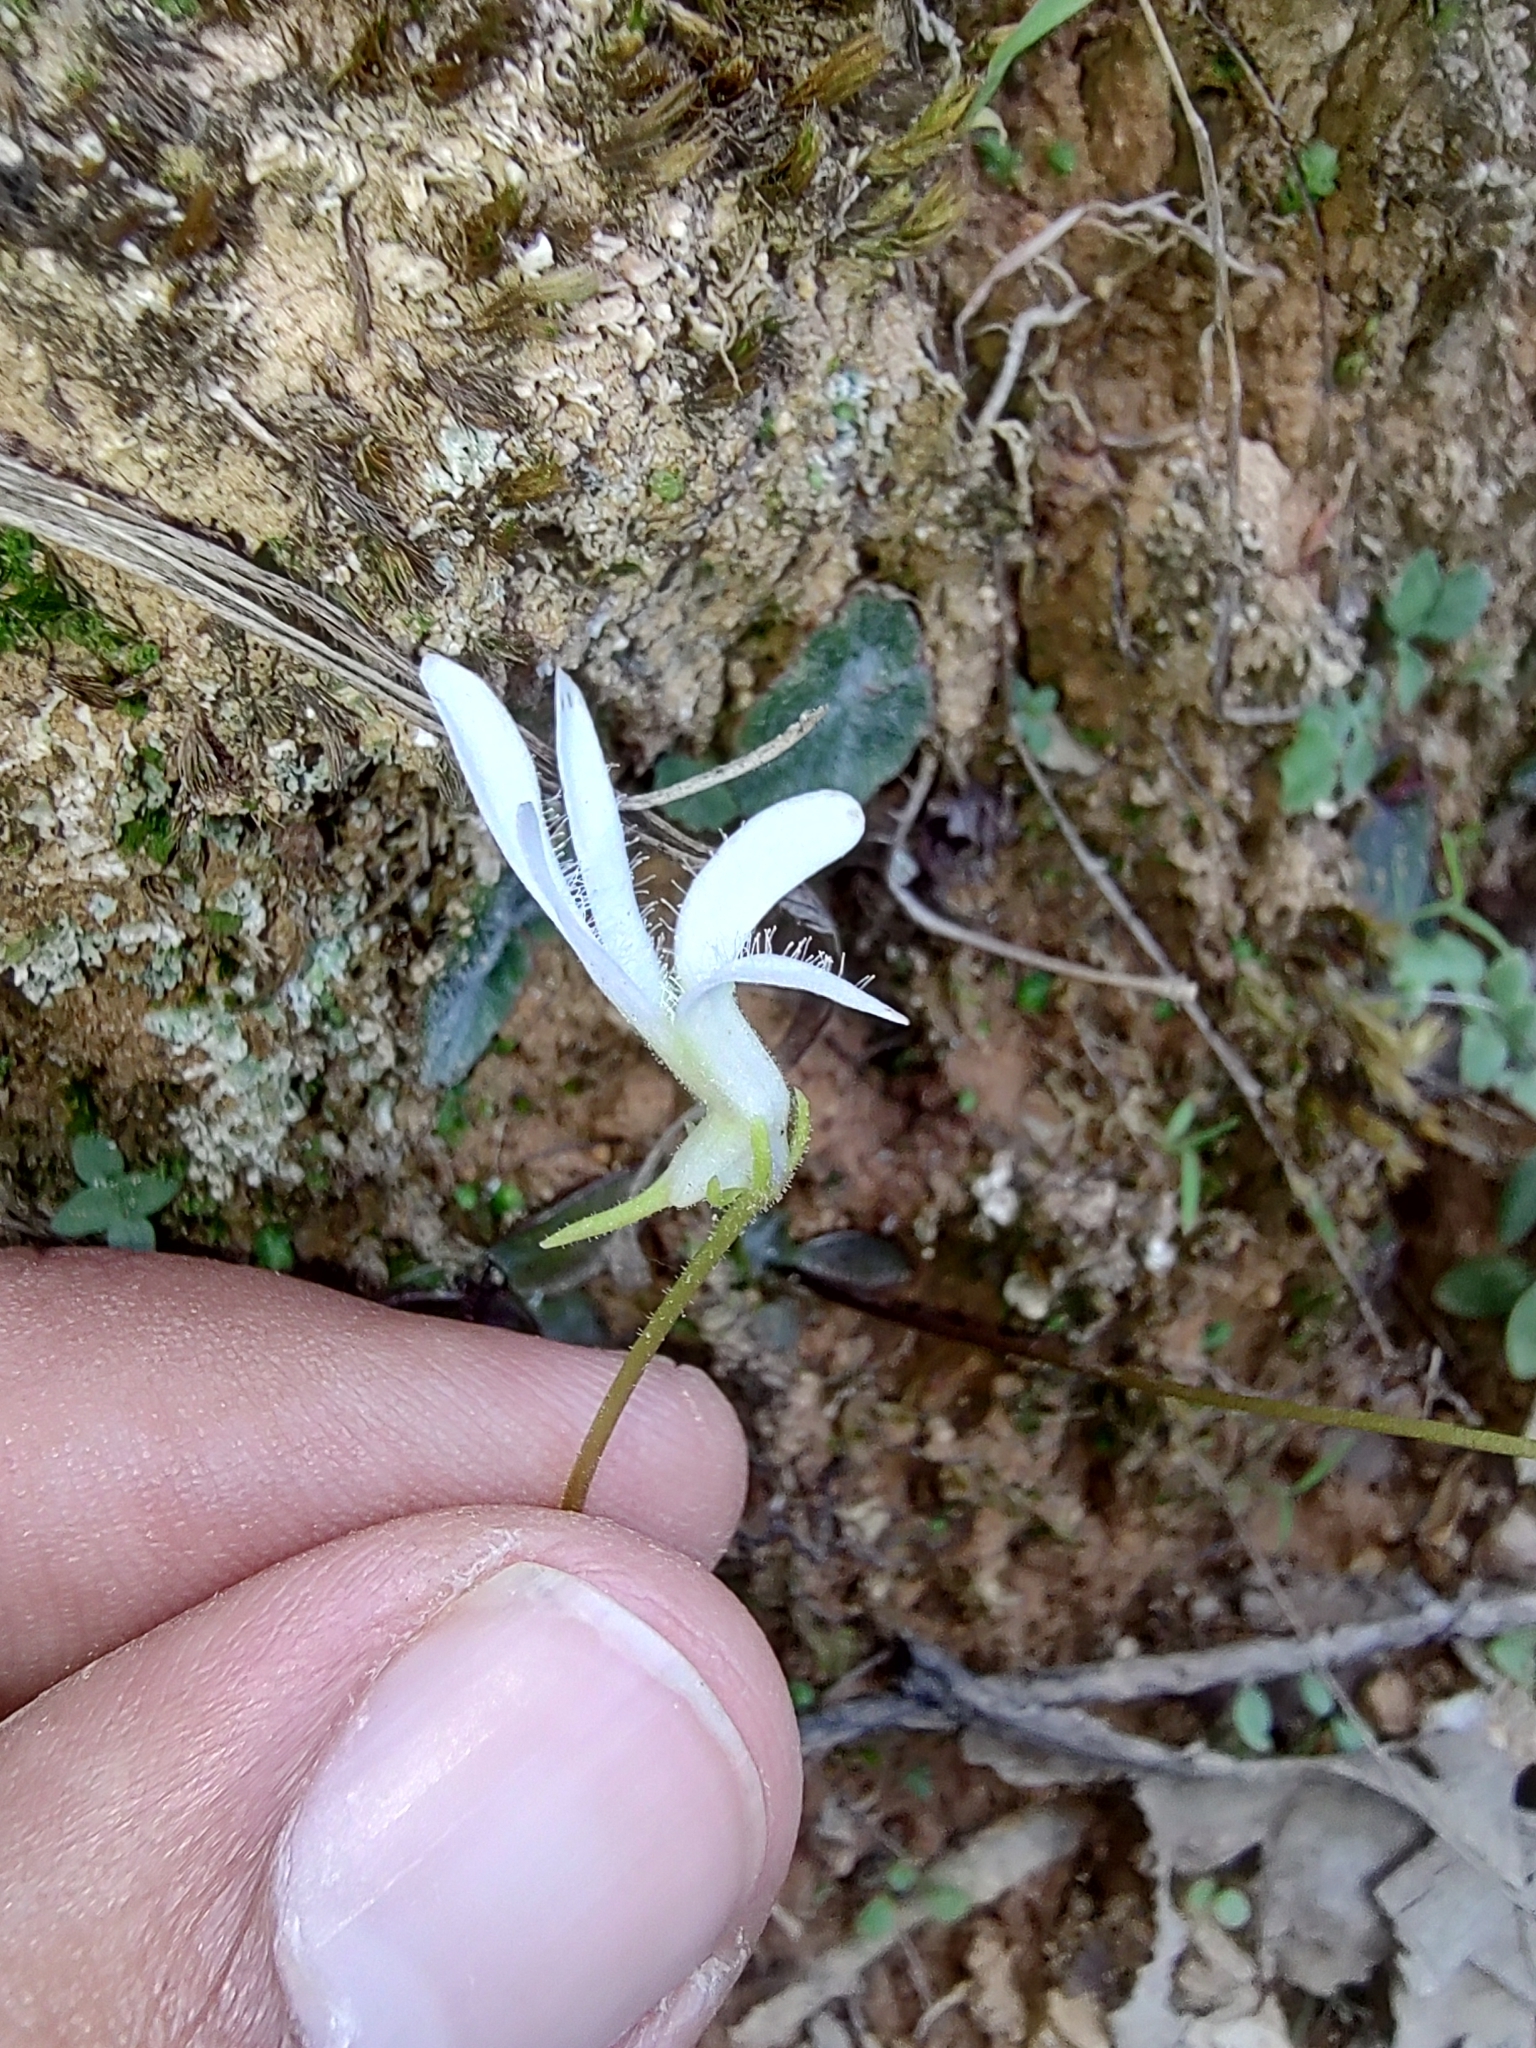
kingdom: Plantae
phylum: Tracheophyta
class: Magnoliopsida
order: Lamiales
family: Lentibulariaceae
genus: Pinguicula
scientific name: Pinguicula parvifolia
